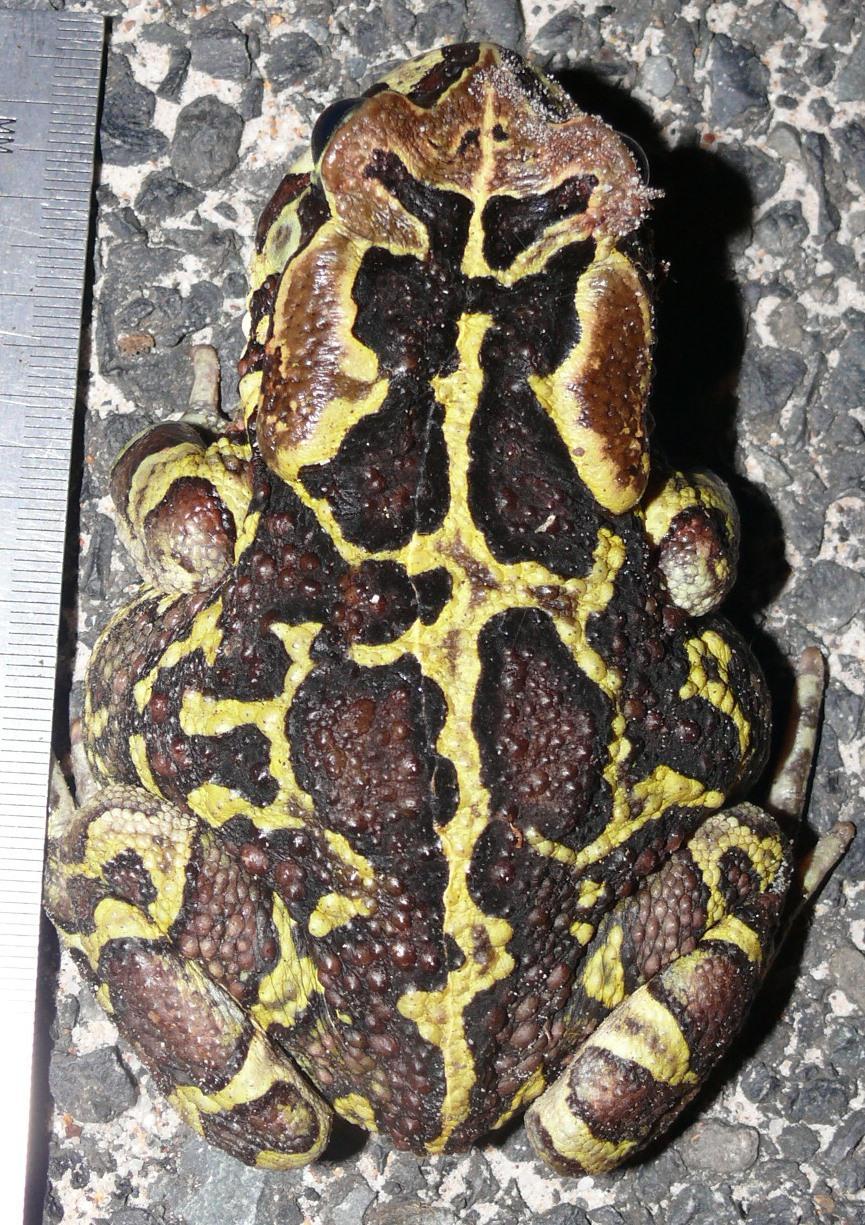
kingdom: Animalia
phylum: Chordata
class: Amphibia
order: Anura
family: Bufonidae
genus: Sclerophrys
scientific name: Sclerophrys pantherina
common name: Panther toad
